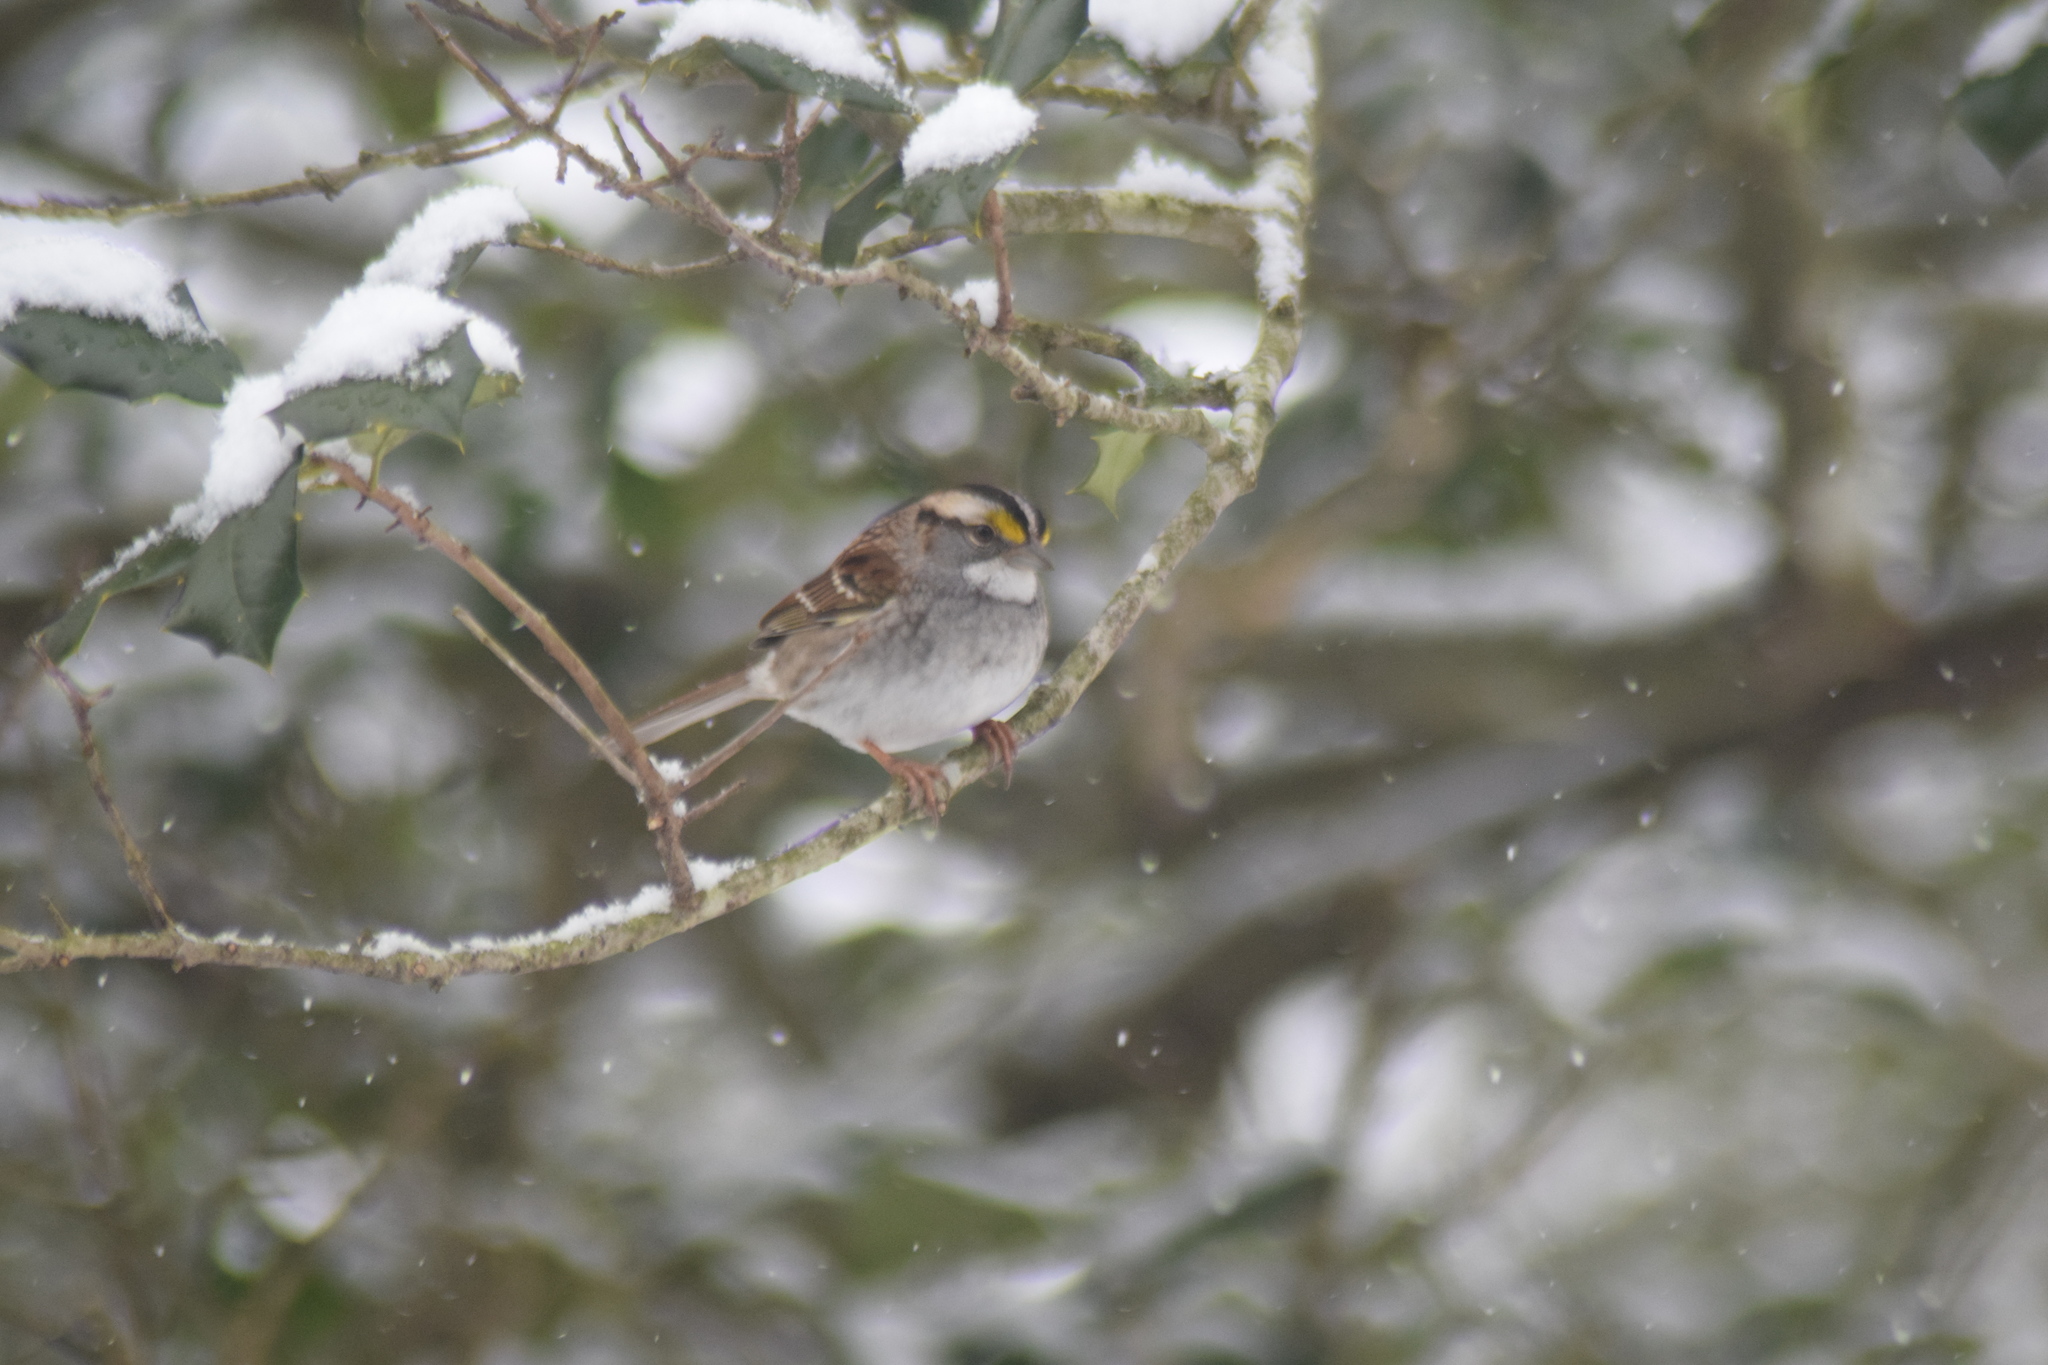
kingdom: Animalia
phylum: Chordata
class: Aves
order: Passeriformes
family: Passerellidae
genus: Zonotrichia
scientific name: Zonotrichia albicollis
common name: White-throated sparrow
